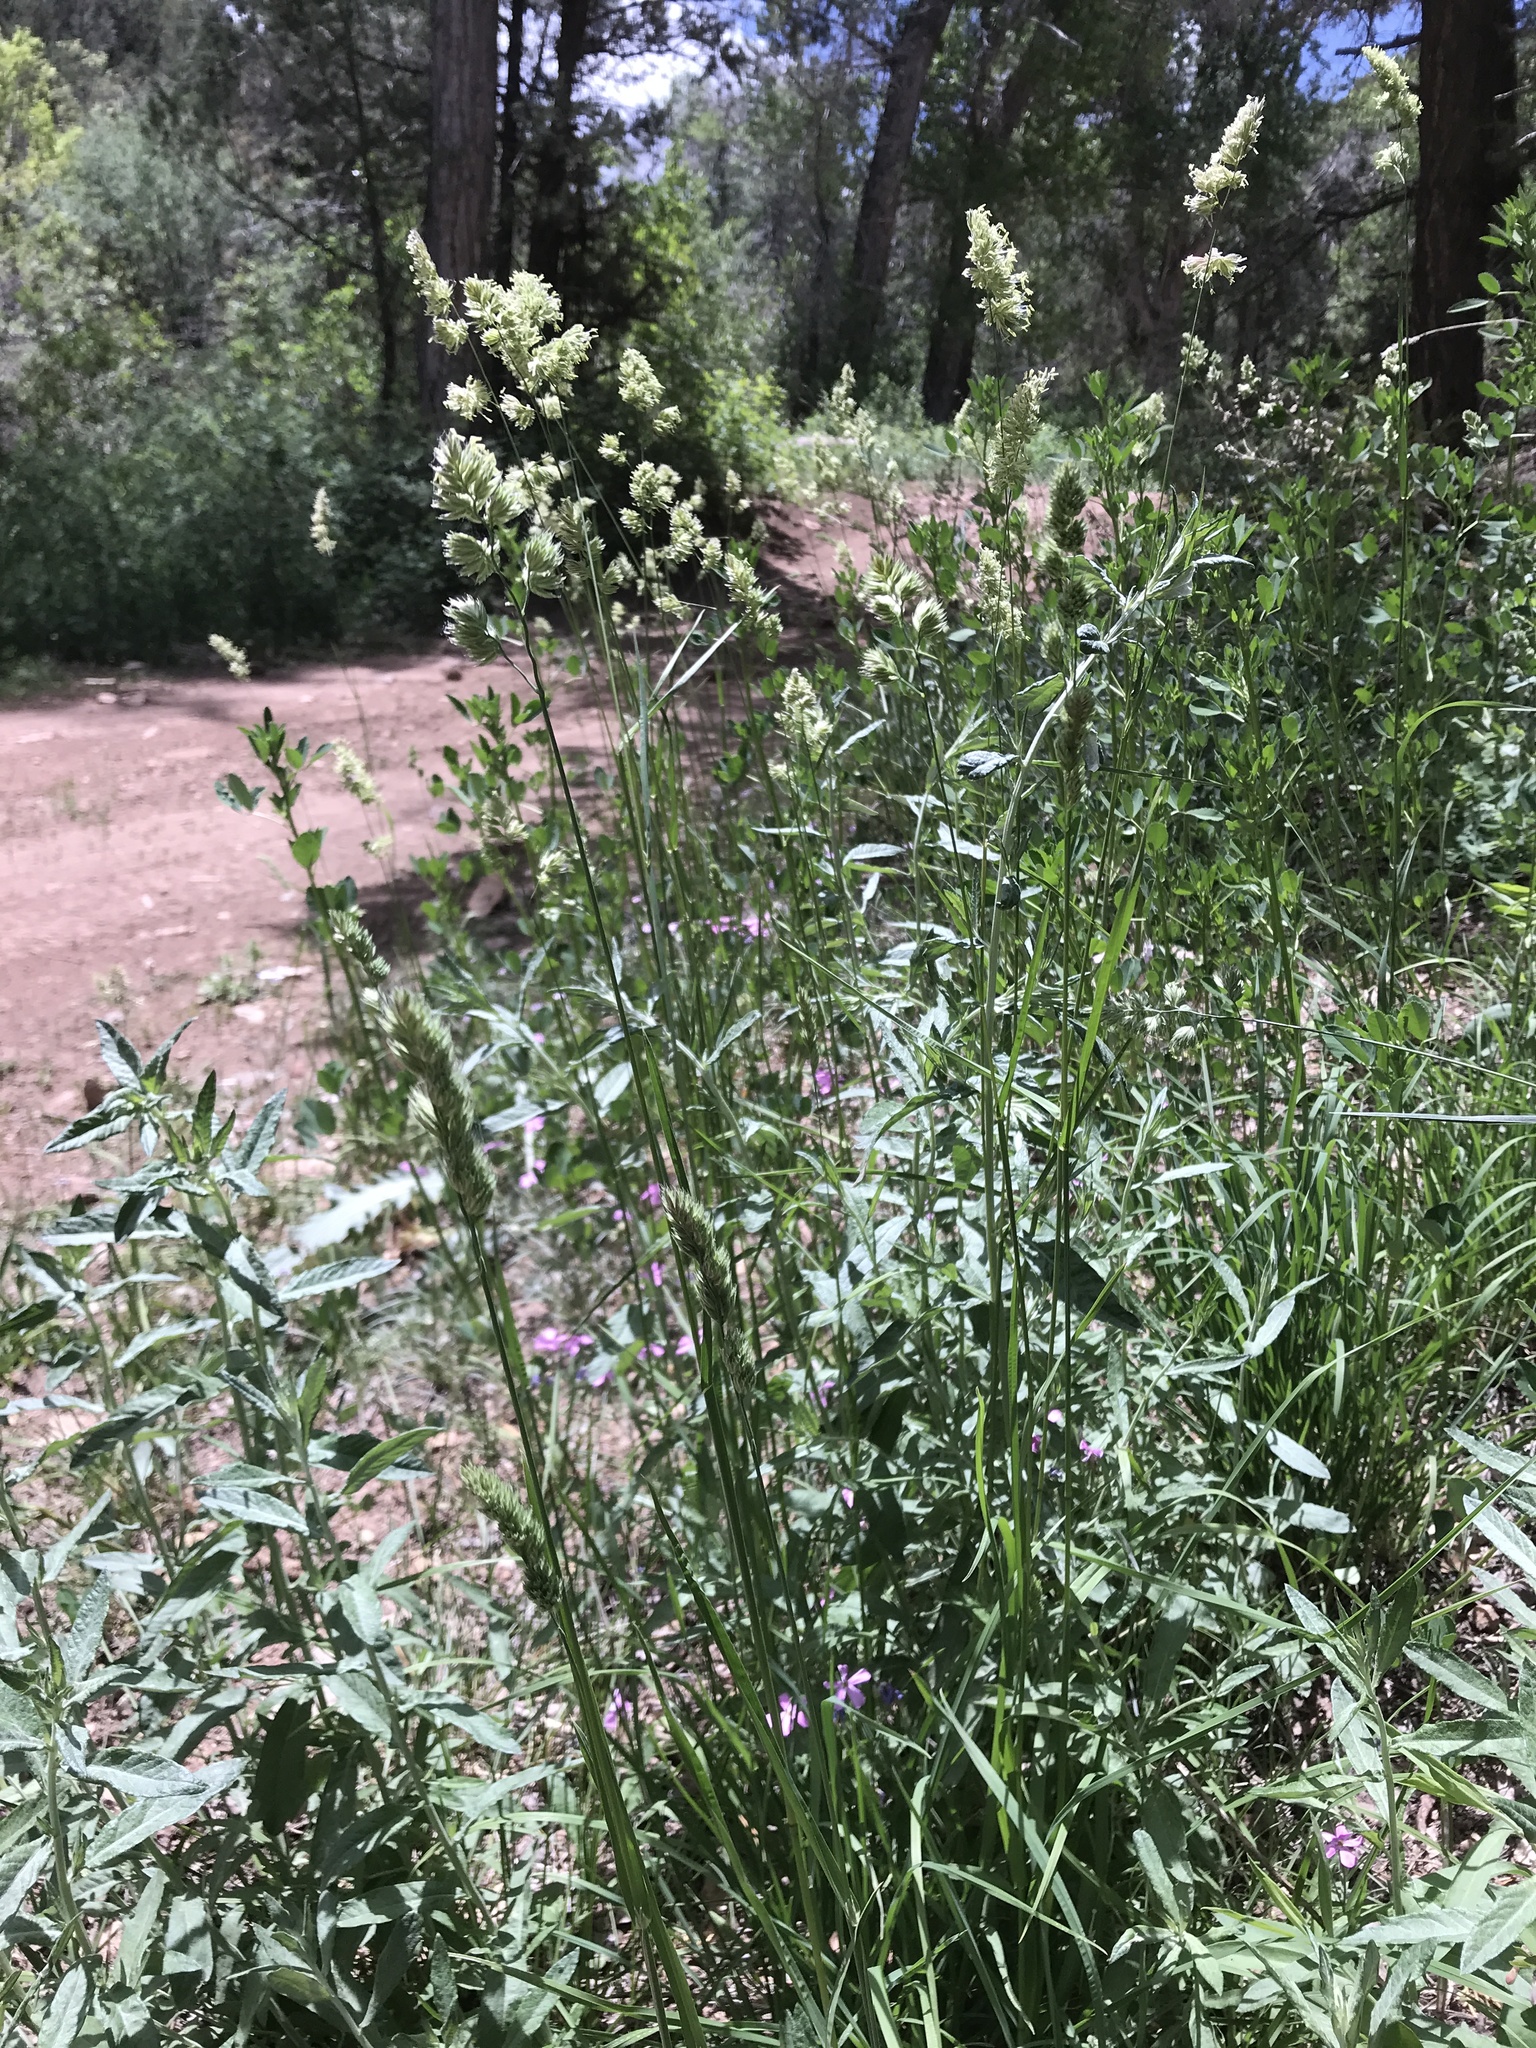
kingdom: Plantae
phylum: Tracheophyta
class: Liliopsida
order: Poales
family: Poaceae
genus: Dactylis
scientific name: Dactylis glomerata
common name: Orchardgrass
